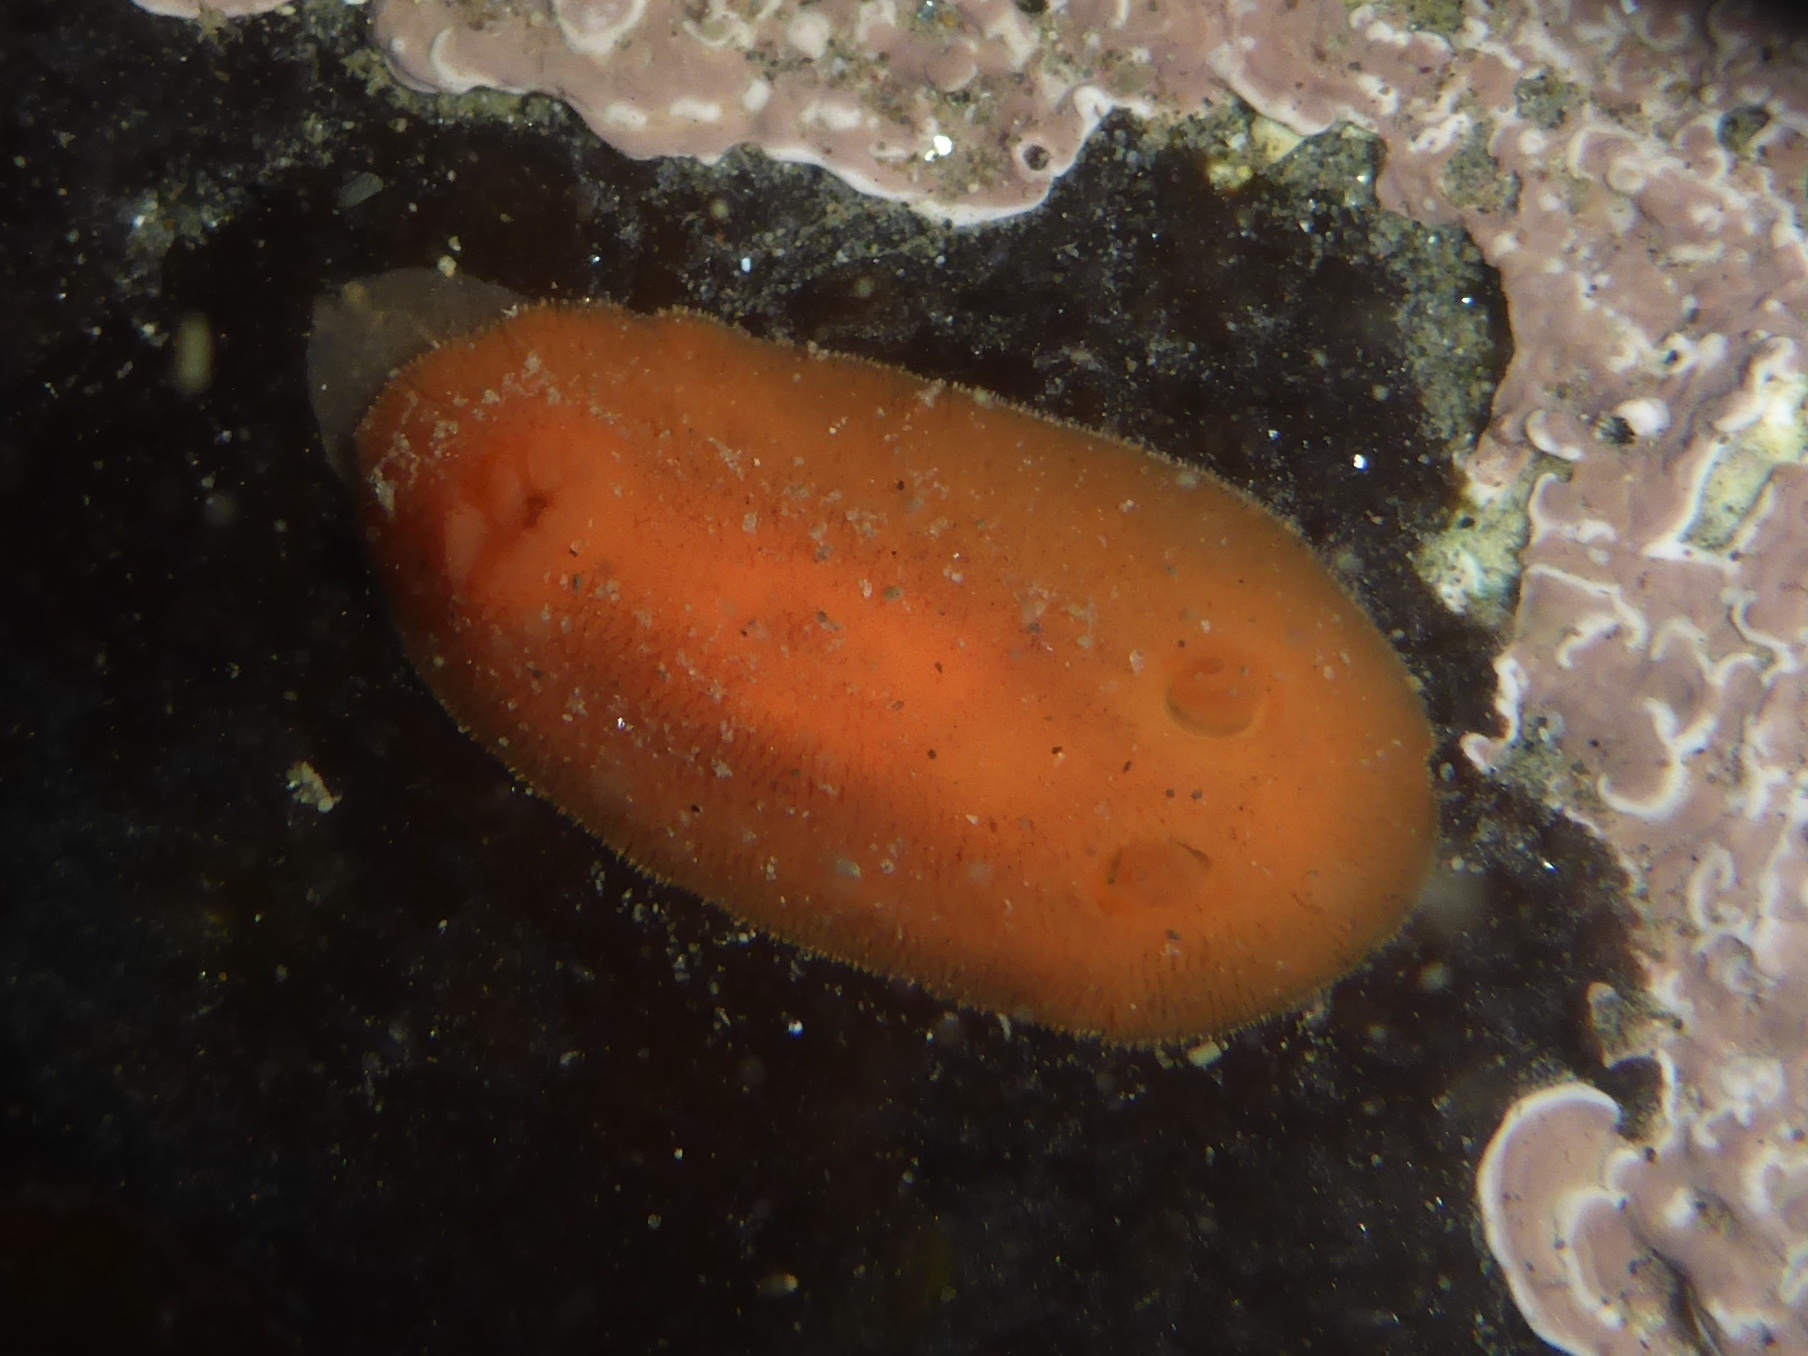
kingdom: Animalia
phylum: Mollusca
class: Gastropoda
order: Nudibranchia
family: Discodorididae
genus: Rostanga
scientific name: Rostanga pulchra
